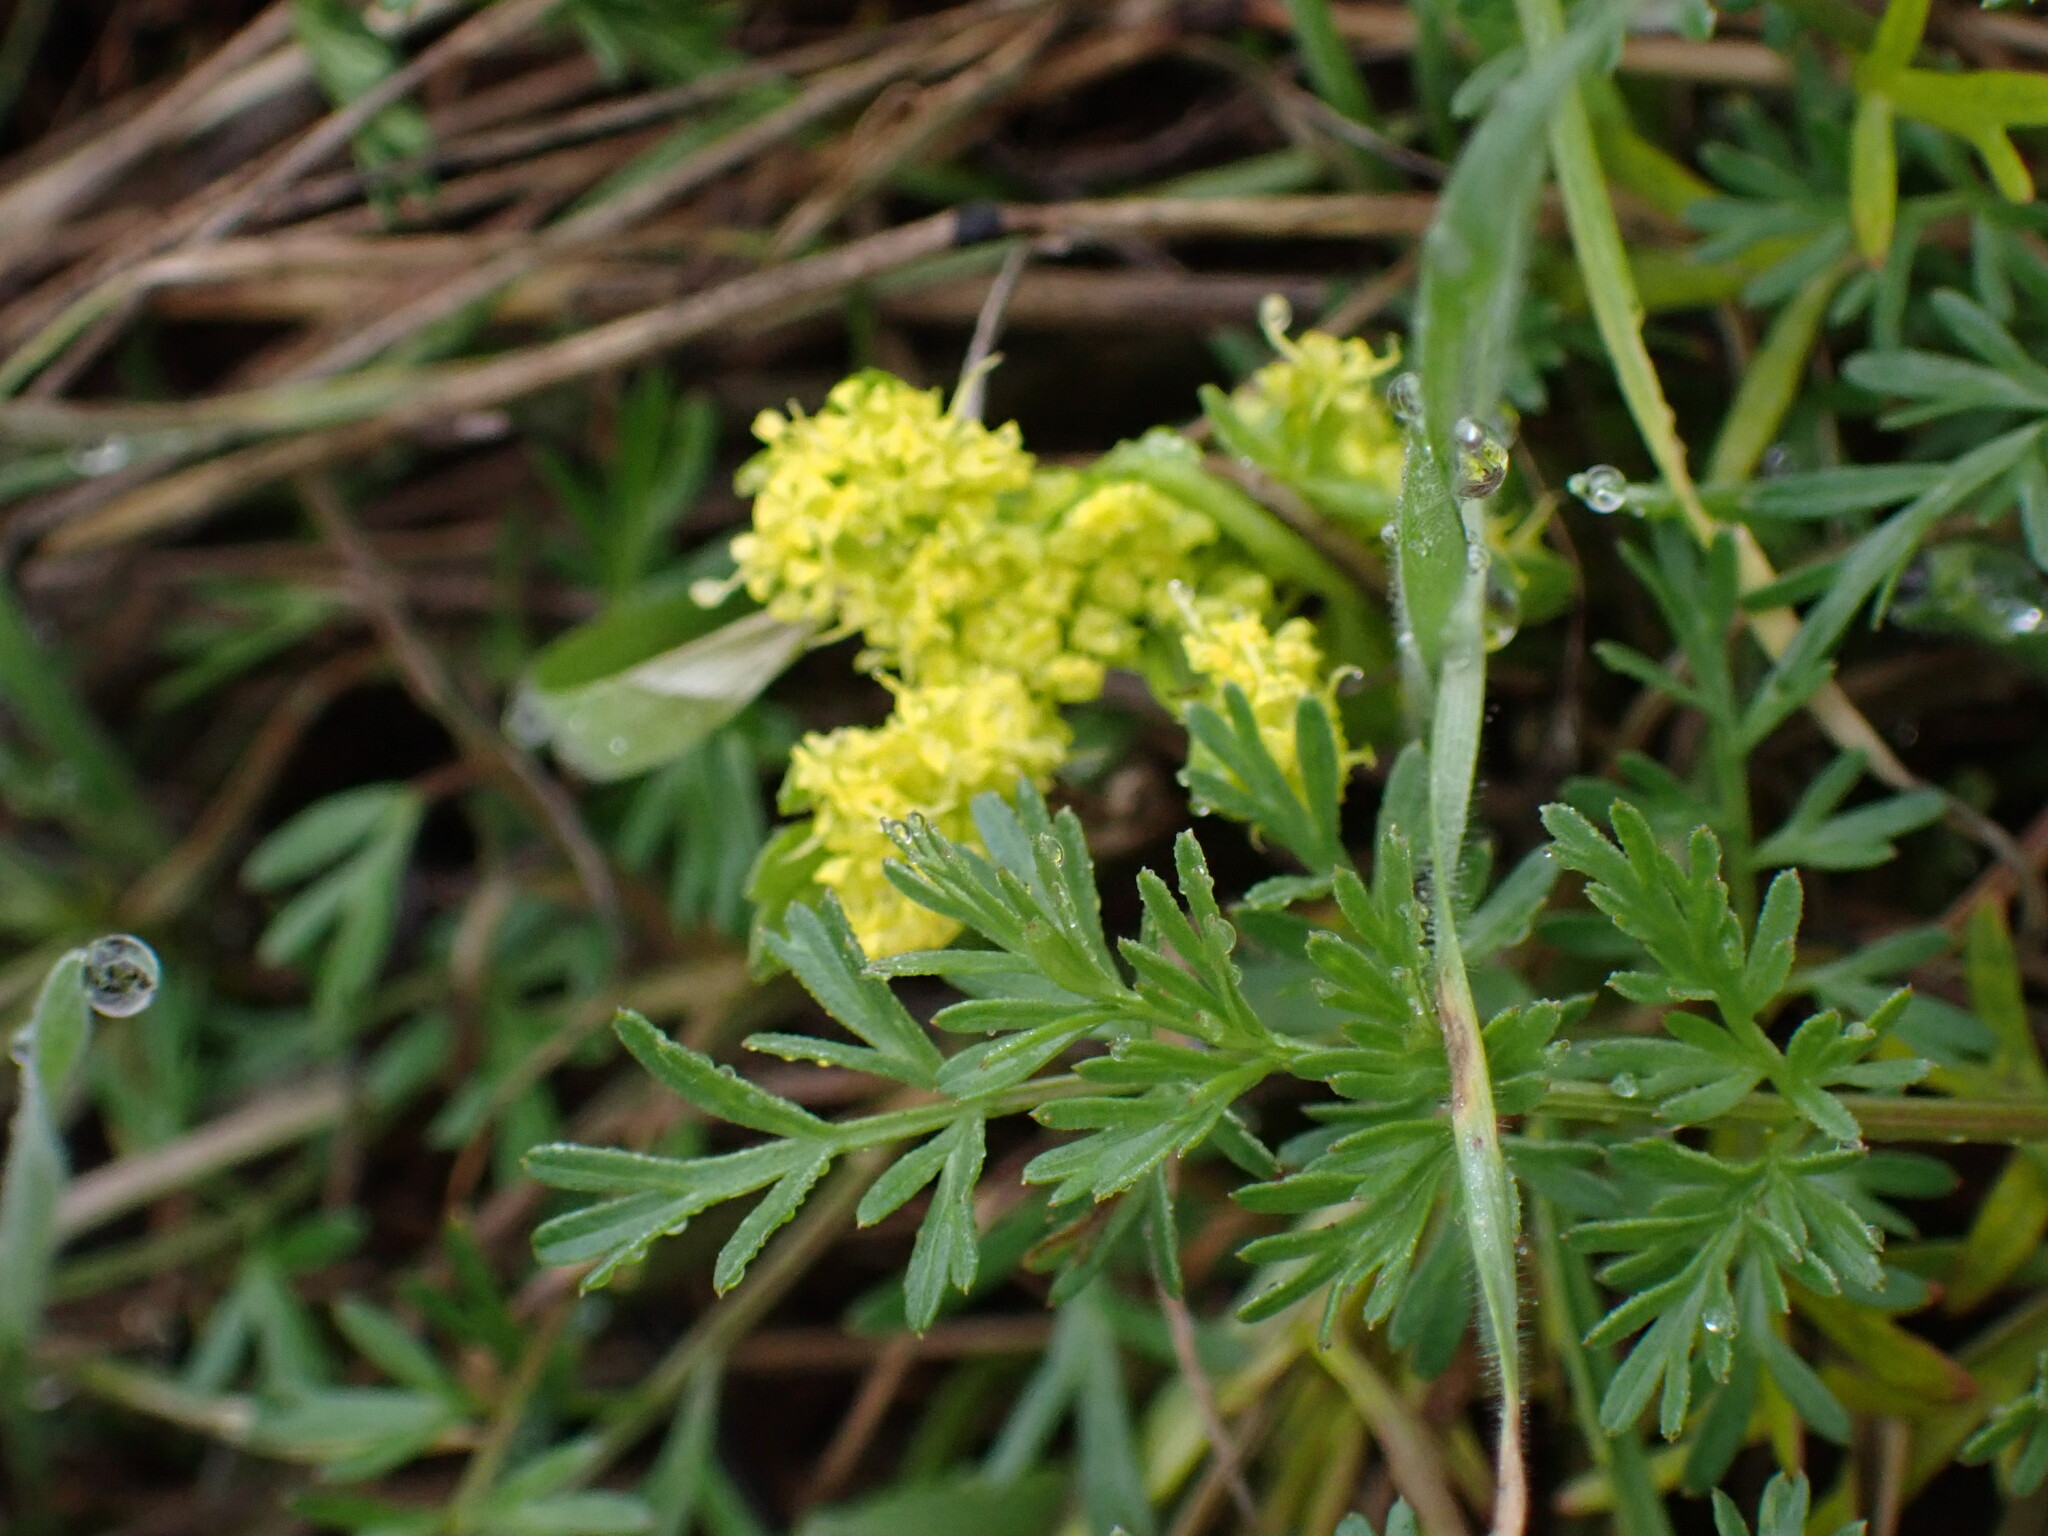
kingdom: Plantae
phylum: Tracheophyta
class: Magnoliopsida
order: Apiales
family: Apiaceae
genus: Lomatium
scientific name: Lomatium utriculatum
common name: Fine-leaf desert-parsley
